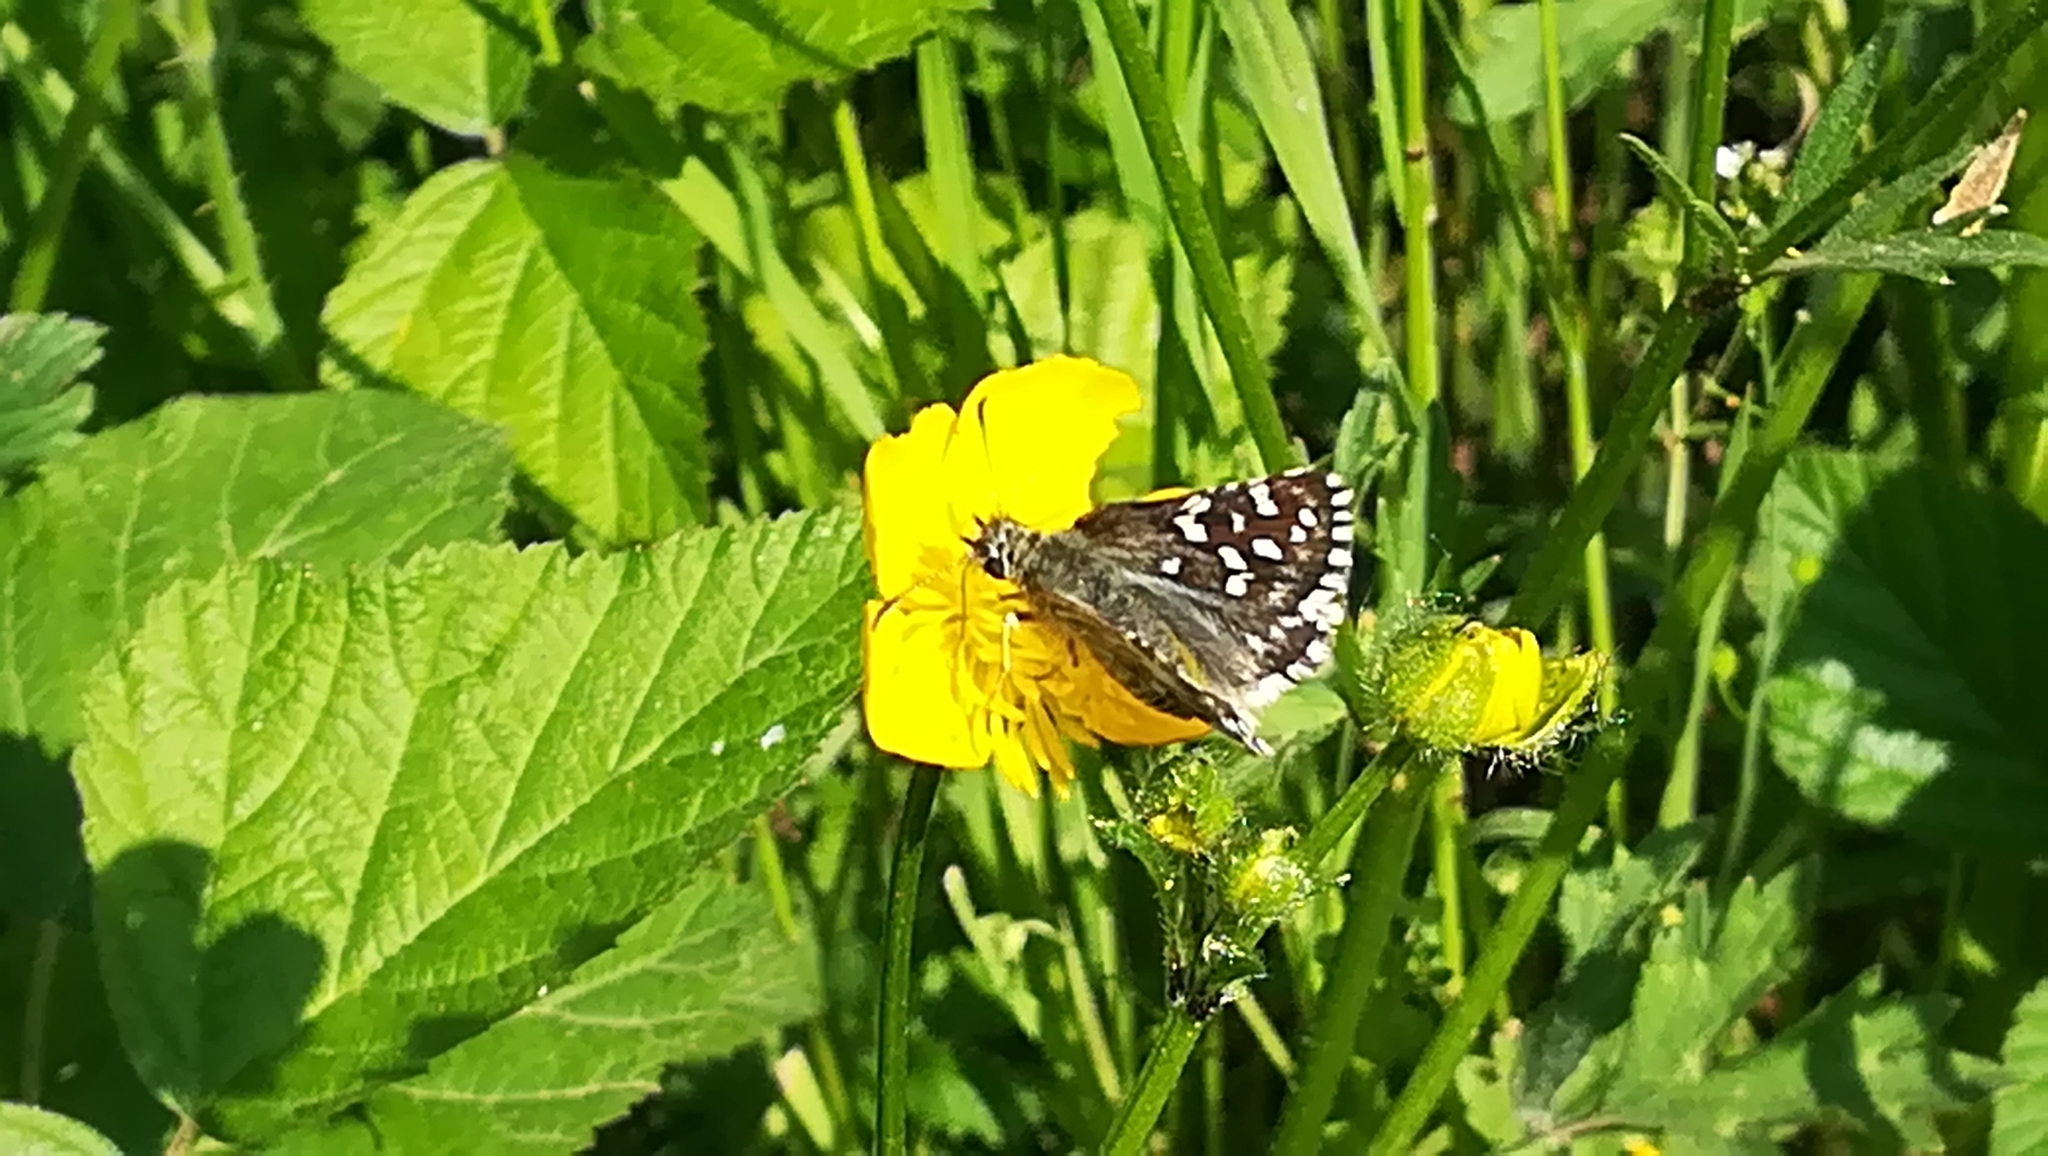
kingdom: Animalia
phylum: Arthropoda
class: Insecta
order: Lepidoptera
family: Hesperiidae
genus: Pyrgus
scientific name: Pyrgus malvoides
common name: Southern grizzled skipper
